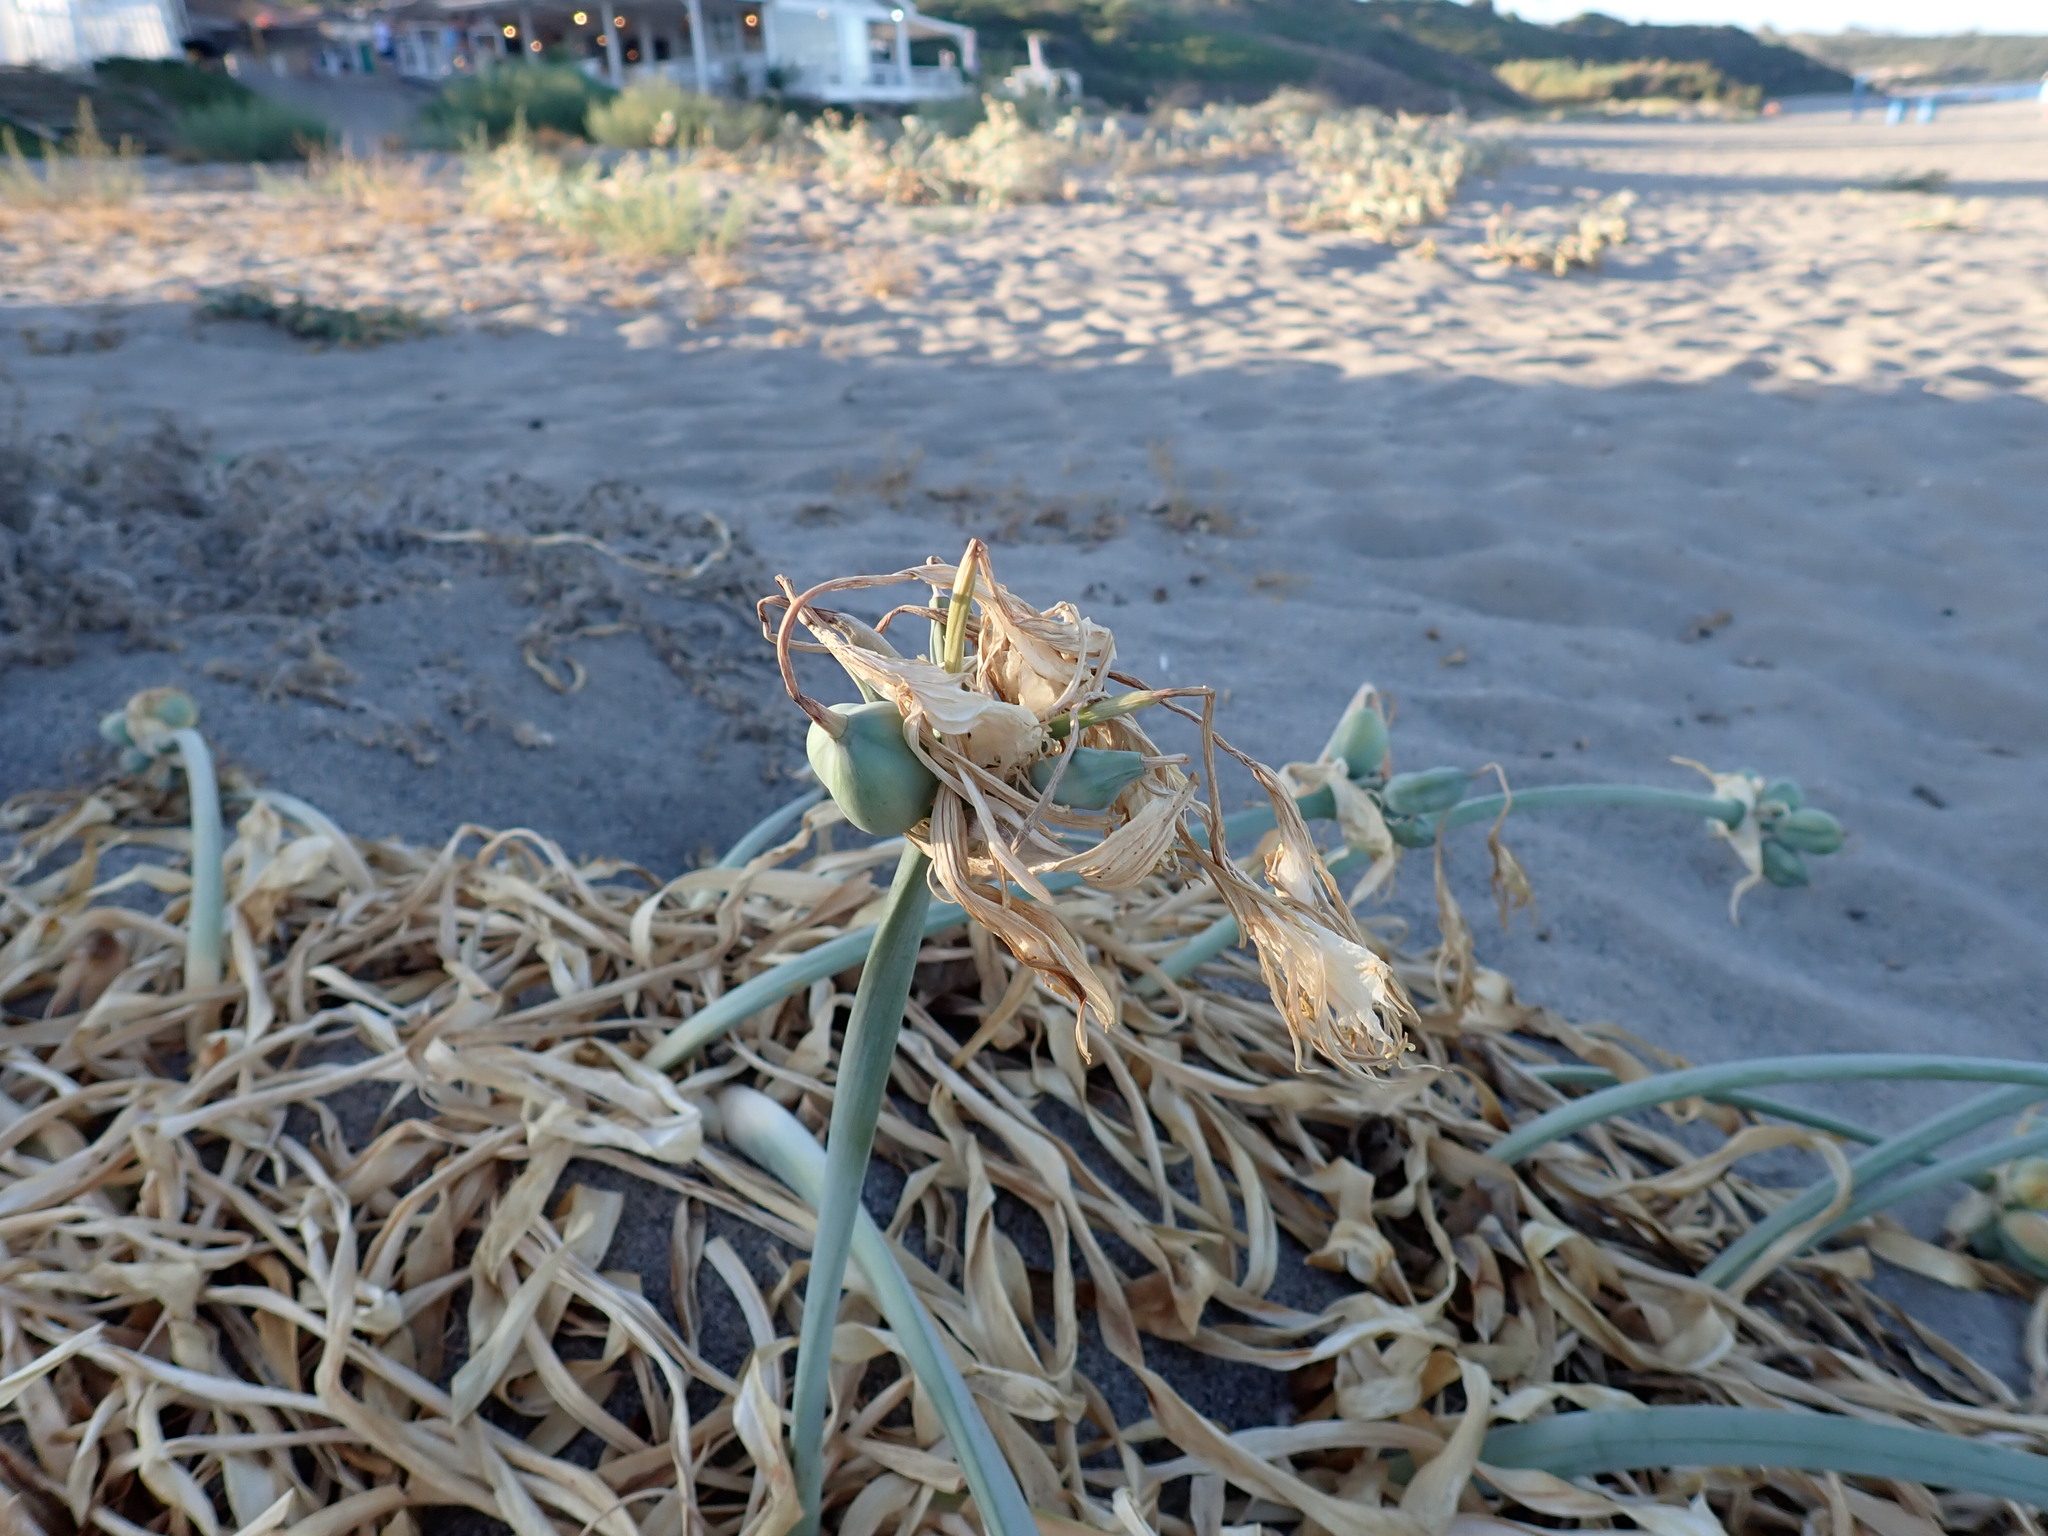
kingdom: Plantae
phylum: Tracheophyta
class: Liliopsida
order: Asparagales
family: Amaryllidaceae
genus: Pancratium
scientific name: Pancratium maritimum
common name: Sea-daffodil
